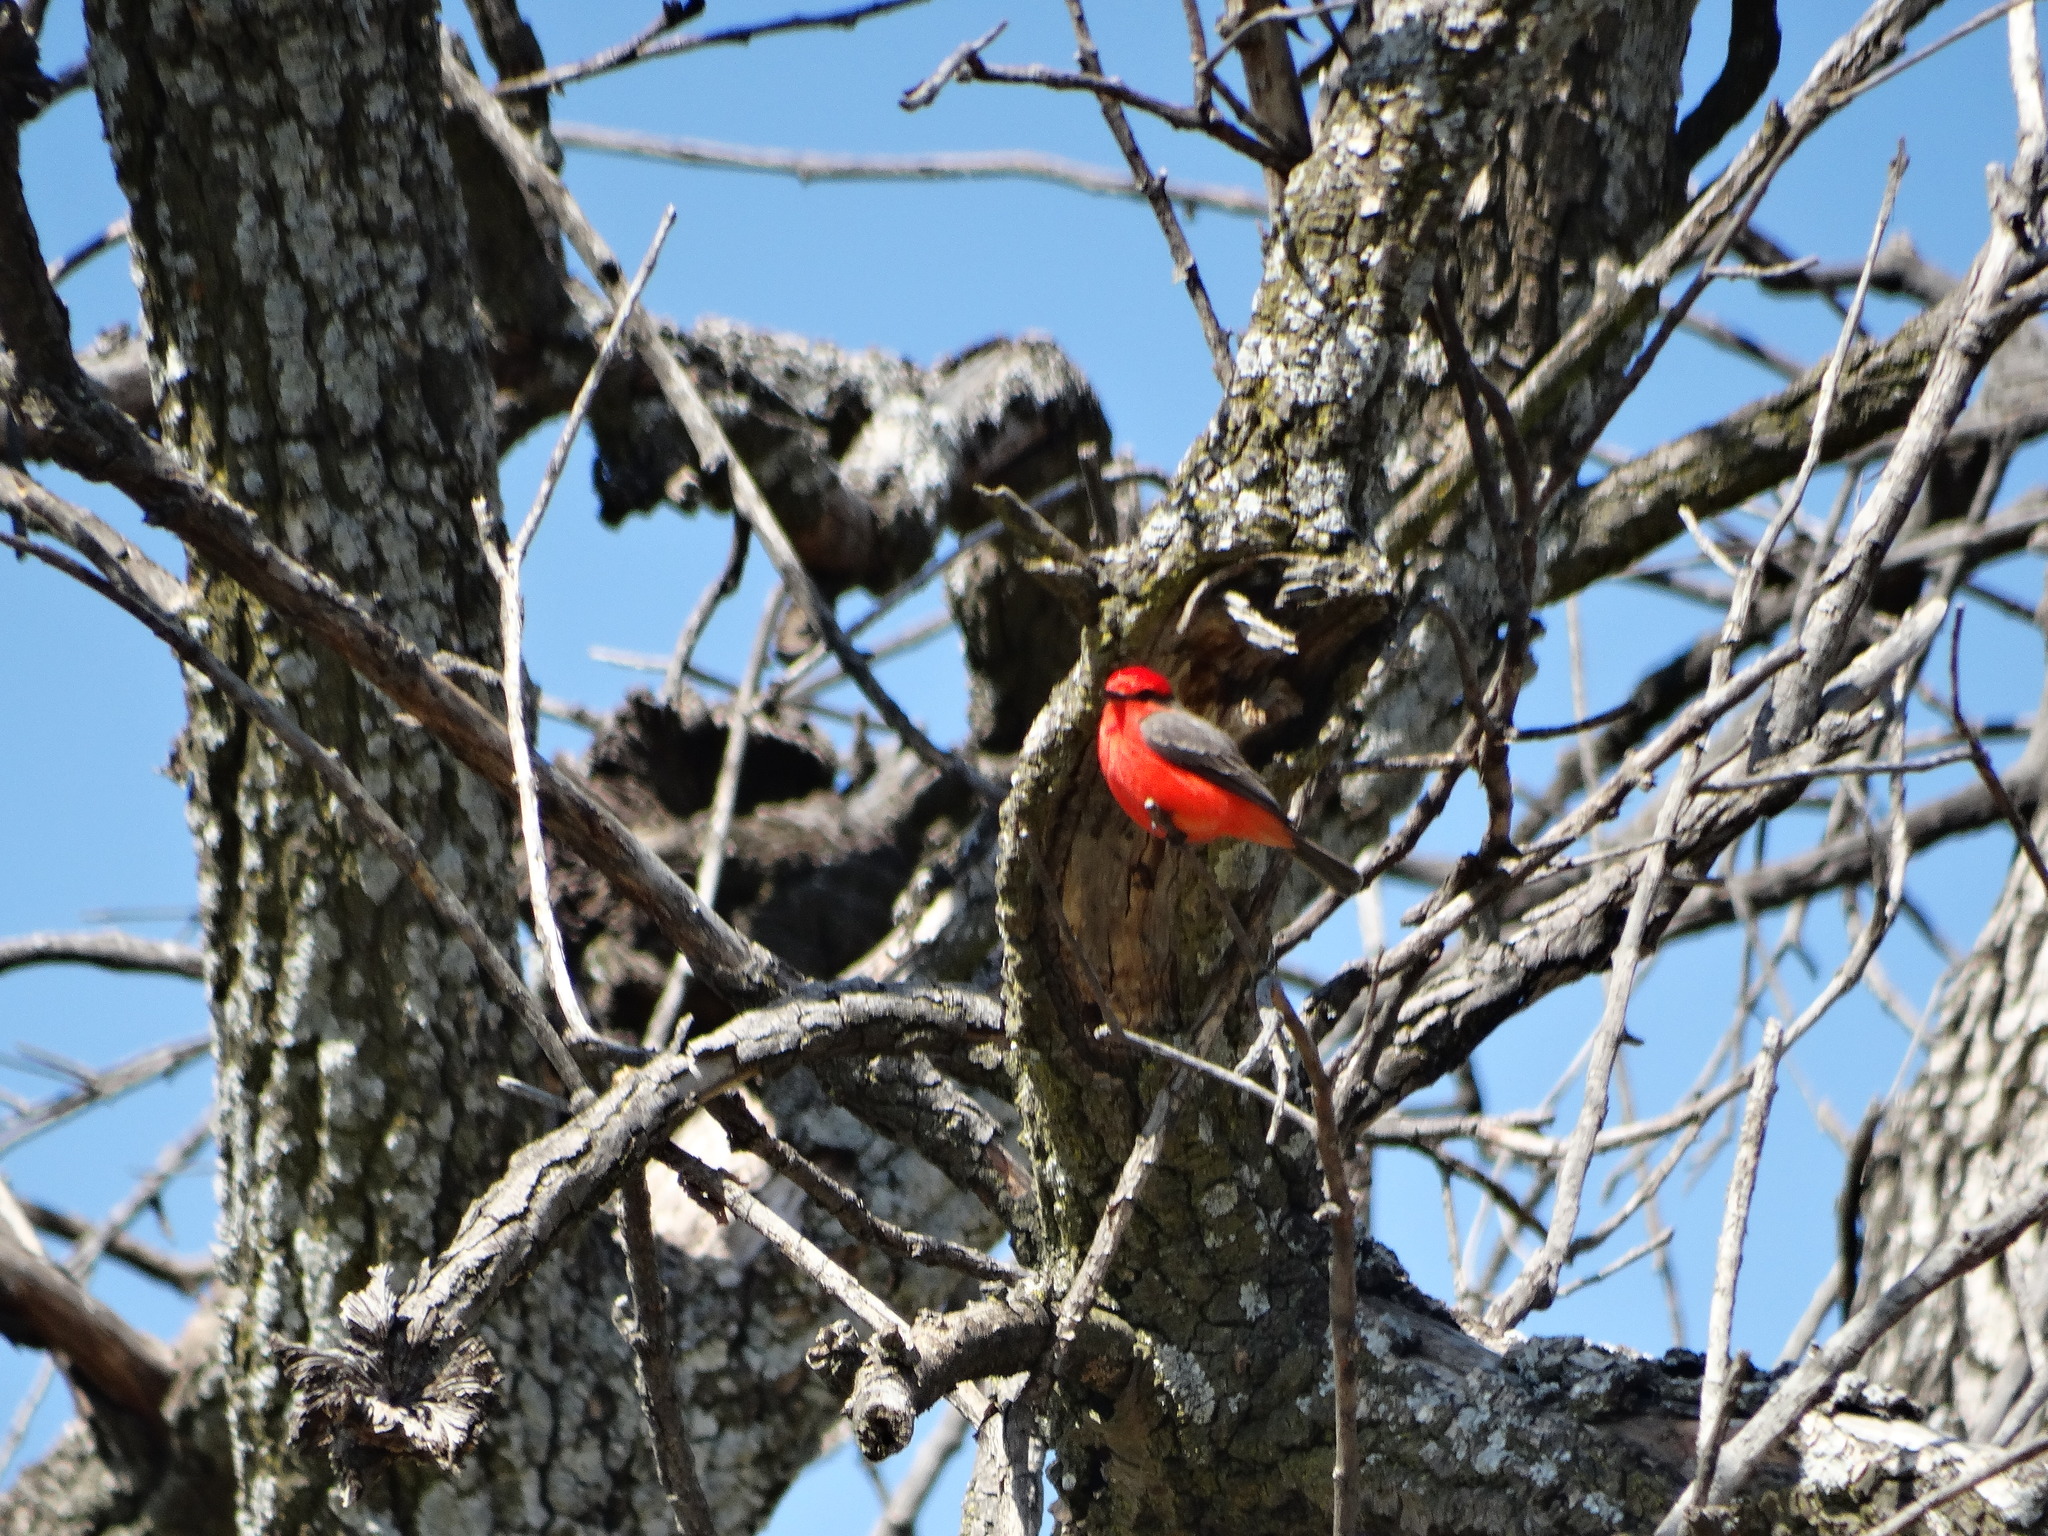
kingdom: Animalia
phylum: Chordata
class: Aves
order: Passeriformes
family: Tyrannidae
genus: Pyrocephalus
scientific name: Pyrocephalus rubinus
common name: Vermilion flycatcher
